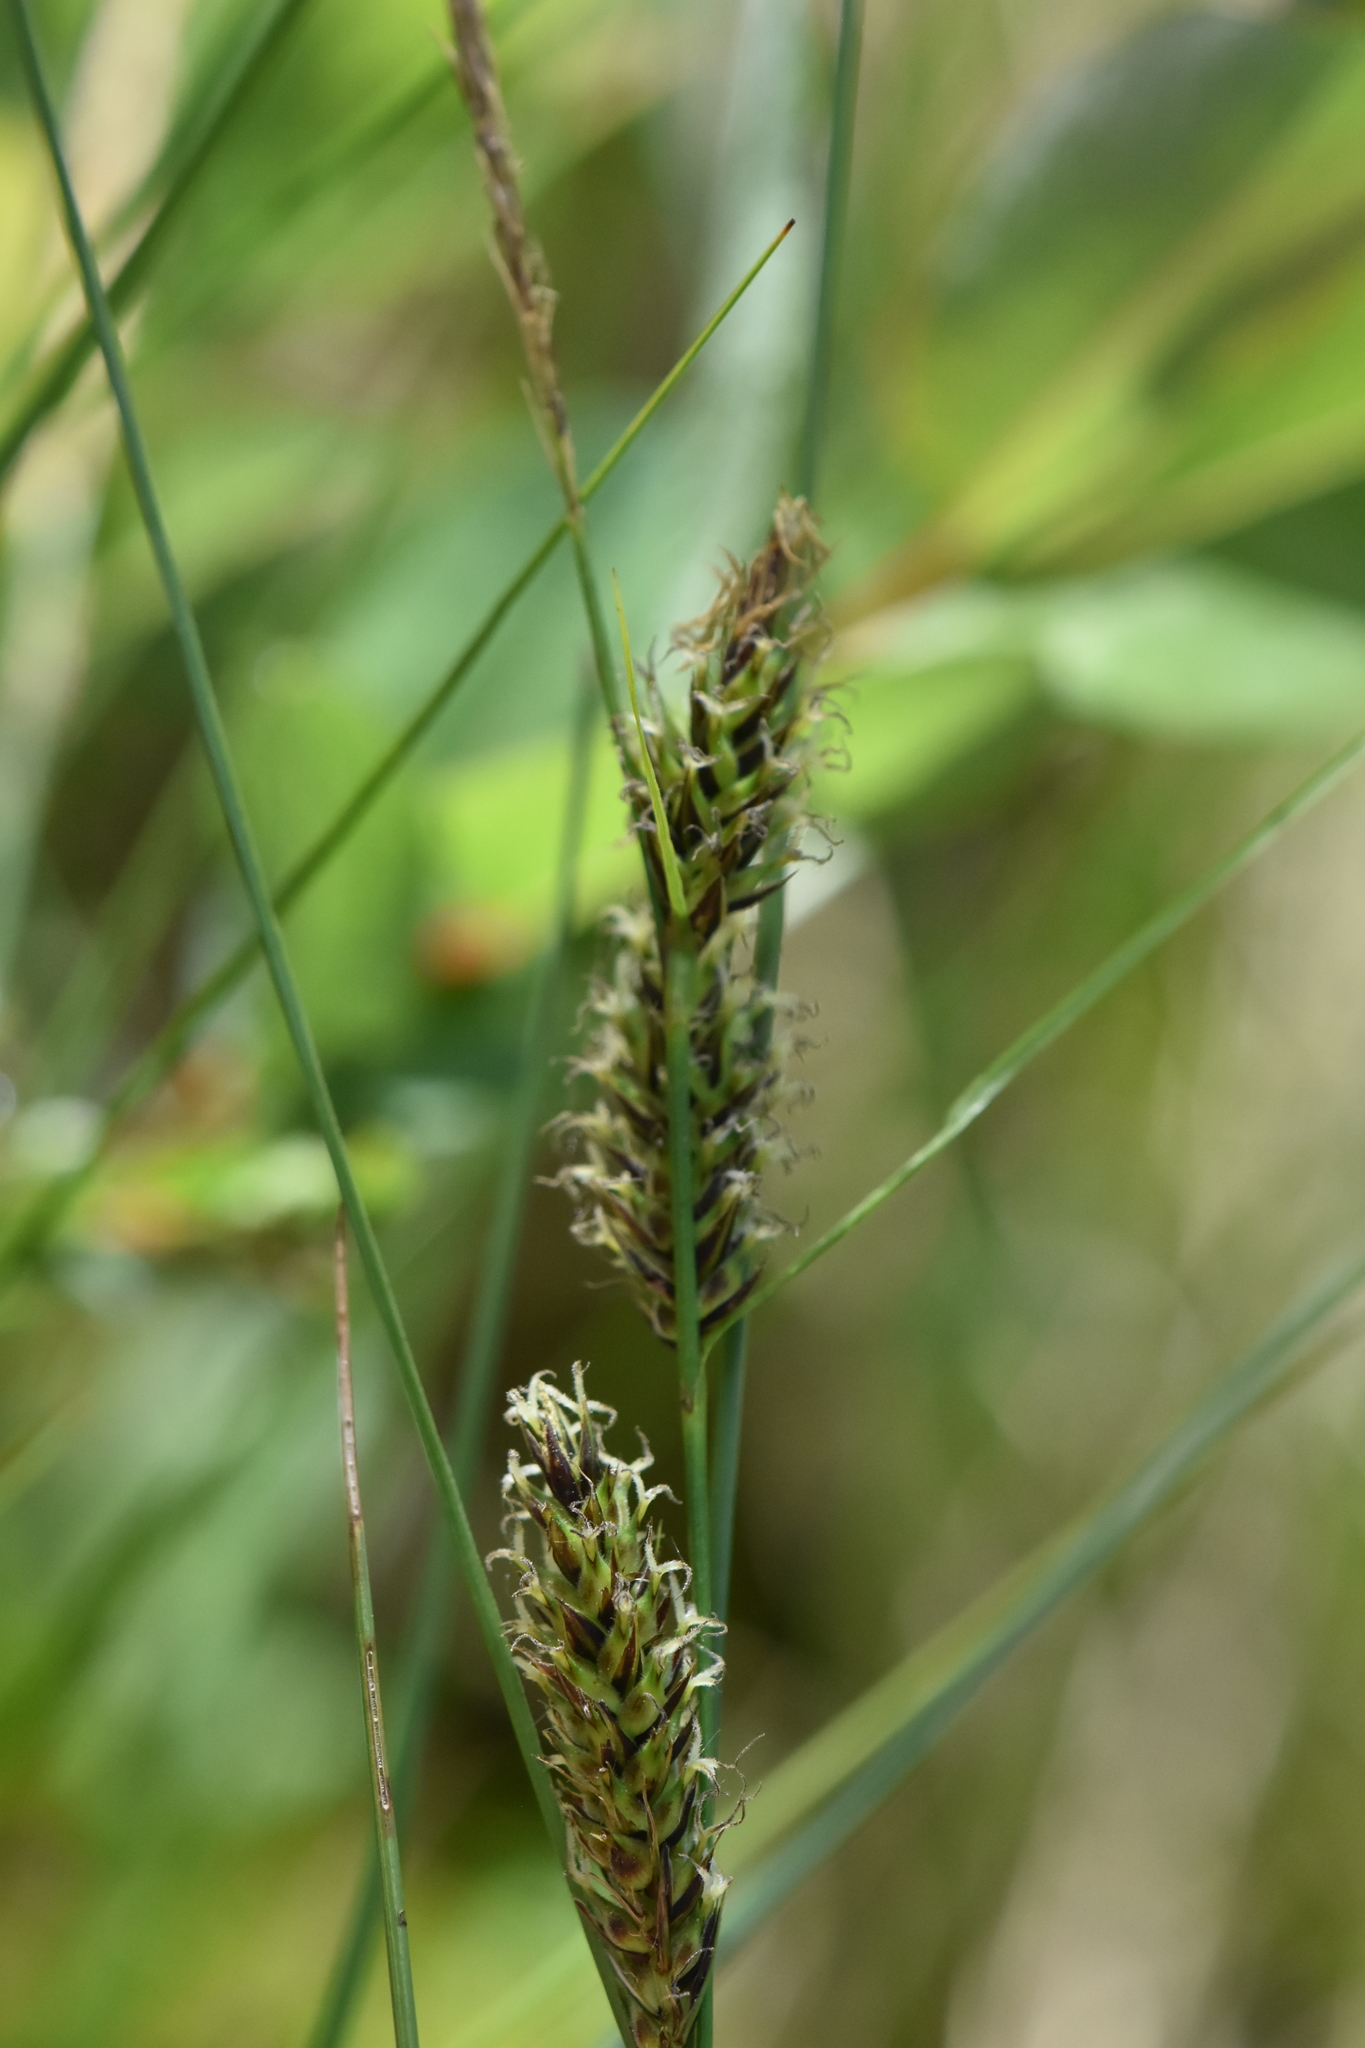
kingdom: Plantae
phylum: Tracheophyta
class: Liliopsida
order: Poales
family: Cyperaceae
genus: Carex
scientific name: Carex lasiocarpa
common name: Slender sedge
